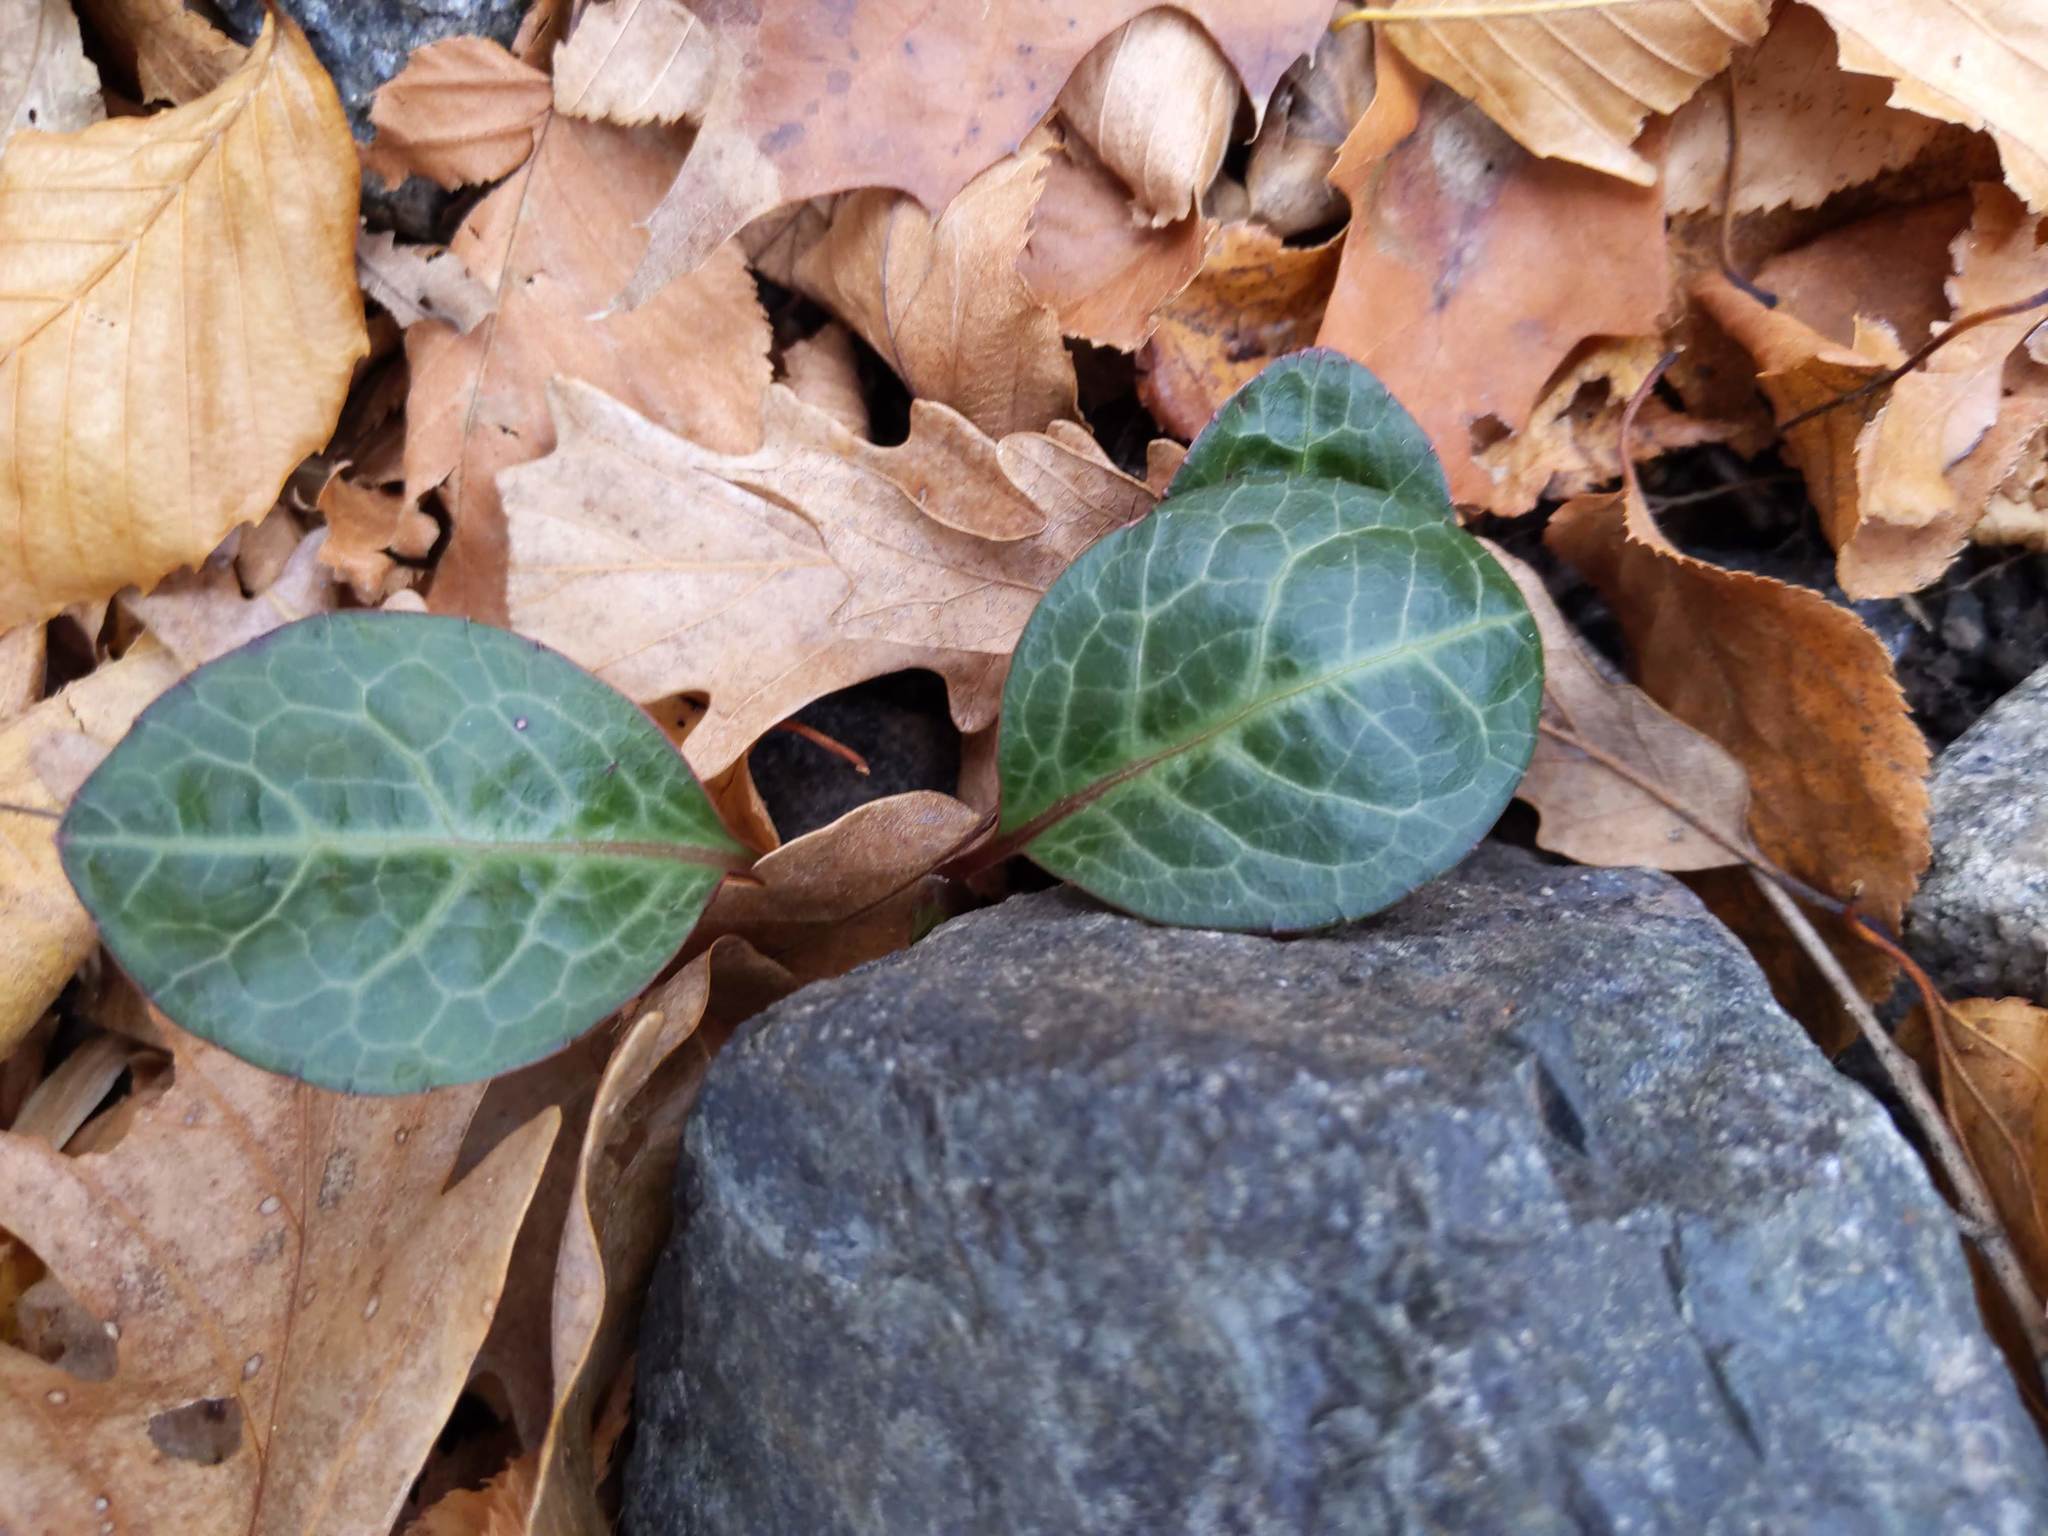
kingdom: Plantae
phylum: Tracheophyta
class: Magnoliopsida
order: Ericales
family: Ericaceae
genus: Pyrola
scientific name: Pyrola americana
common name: American wintergreen
